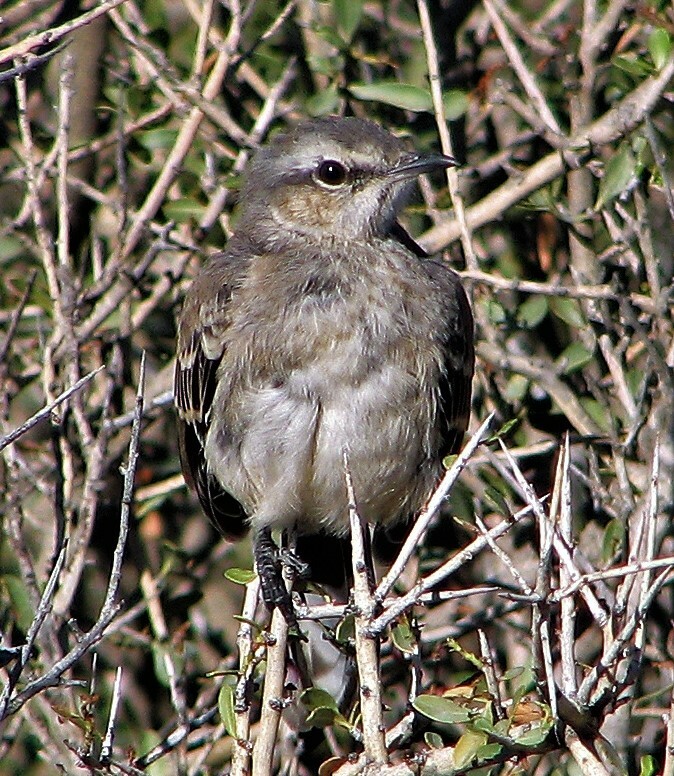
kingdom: Animalia
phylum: Chordata
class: Aves
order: Passeriformes
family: Mimidae
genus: Mimus
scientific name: Mimus patagonicus
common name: Patagonian mockingbird
